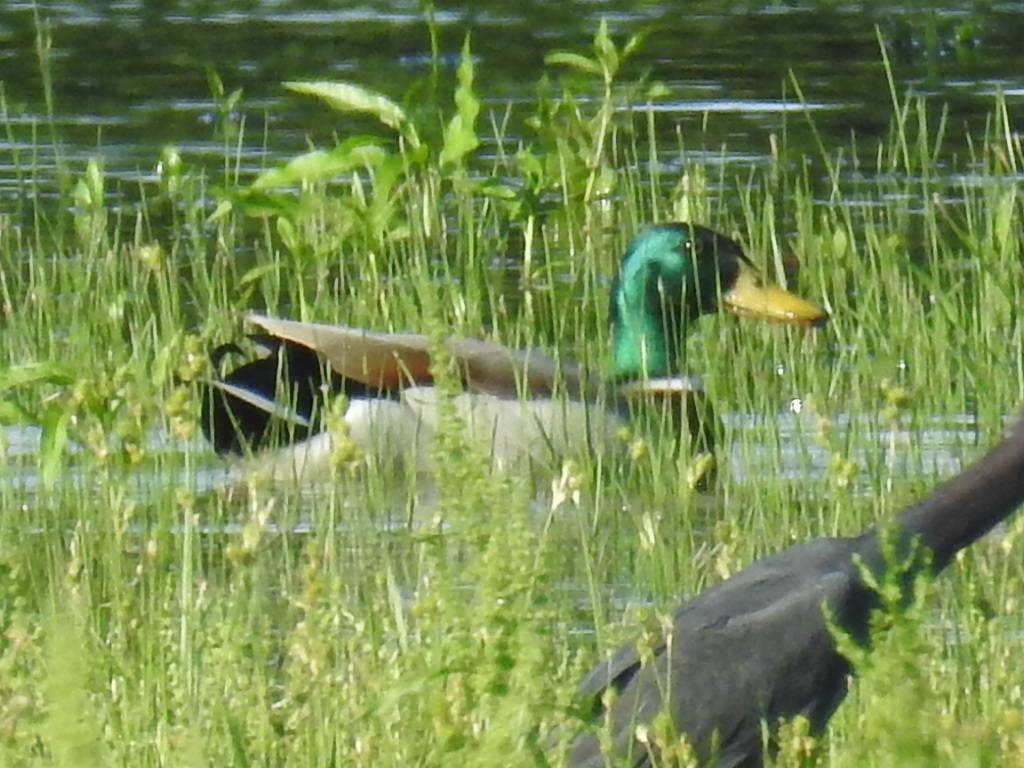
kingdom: Animalia
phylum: Chordata
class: Aves
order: Anseriformes
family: Anatidae
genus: Anas
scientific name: Anas platyrhynchos
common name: Mallard
